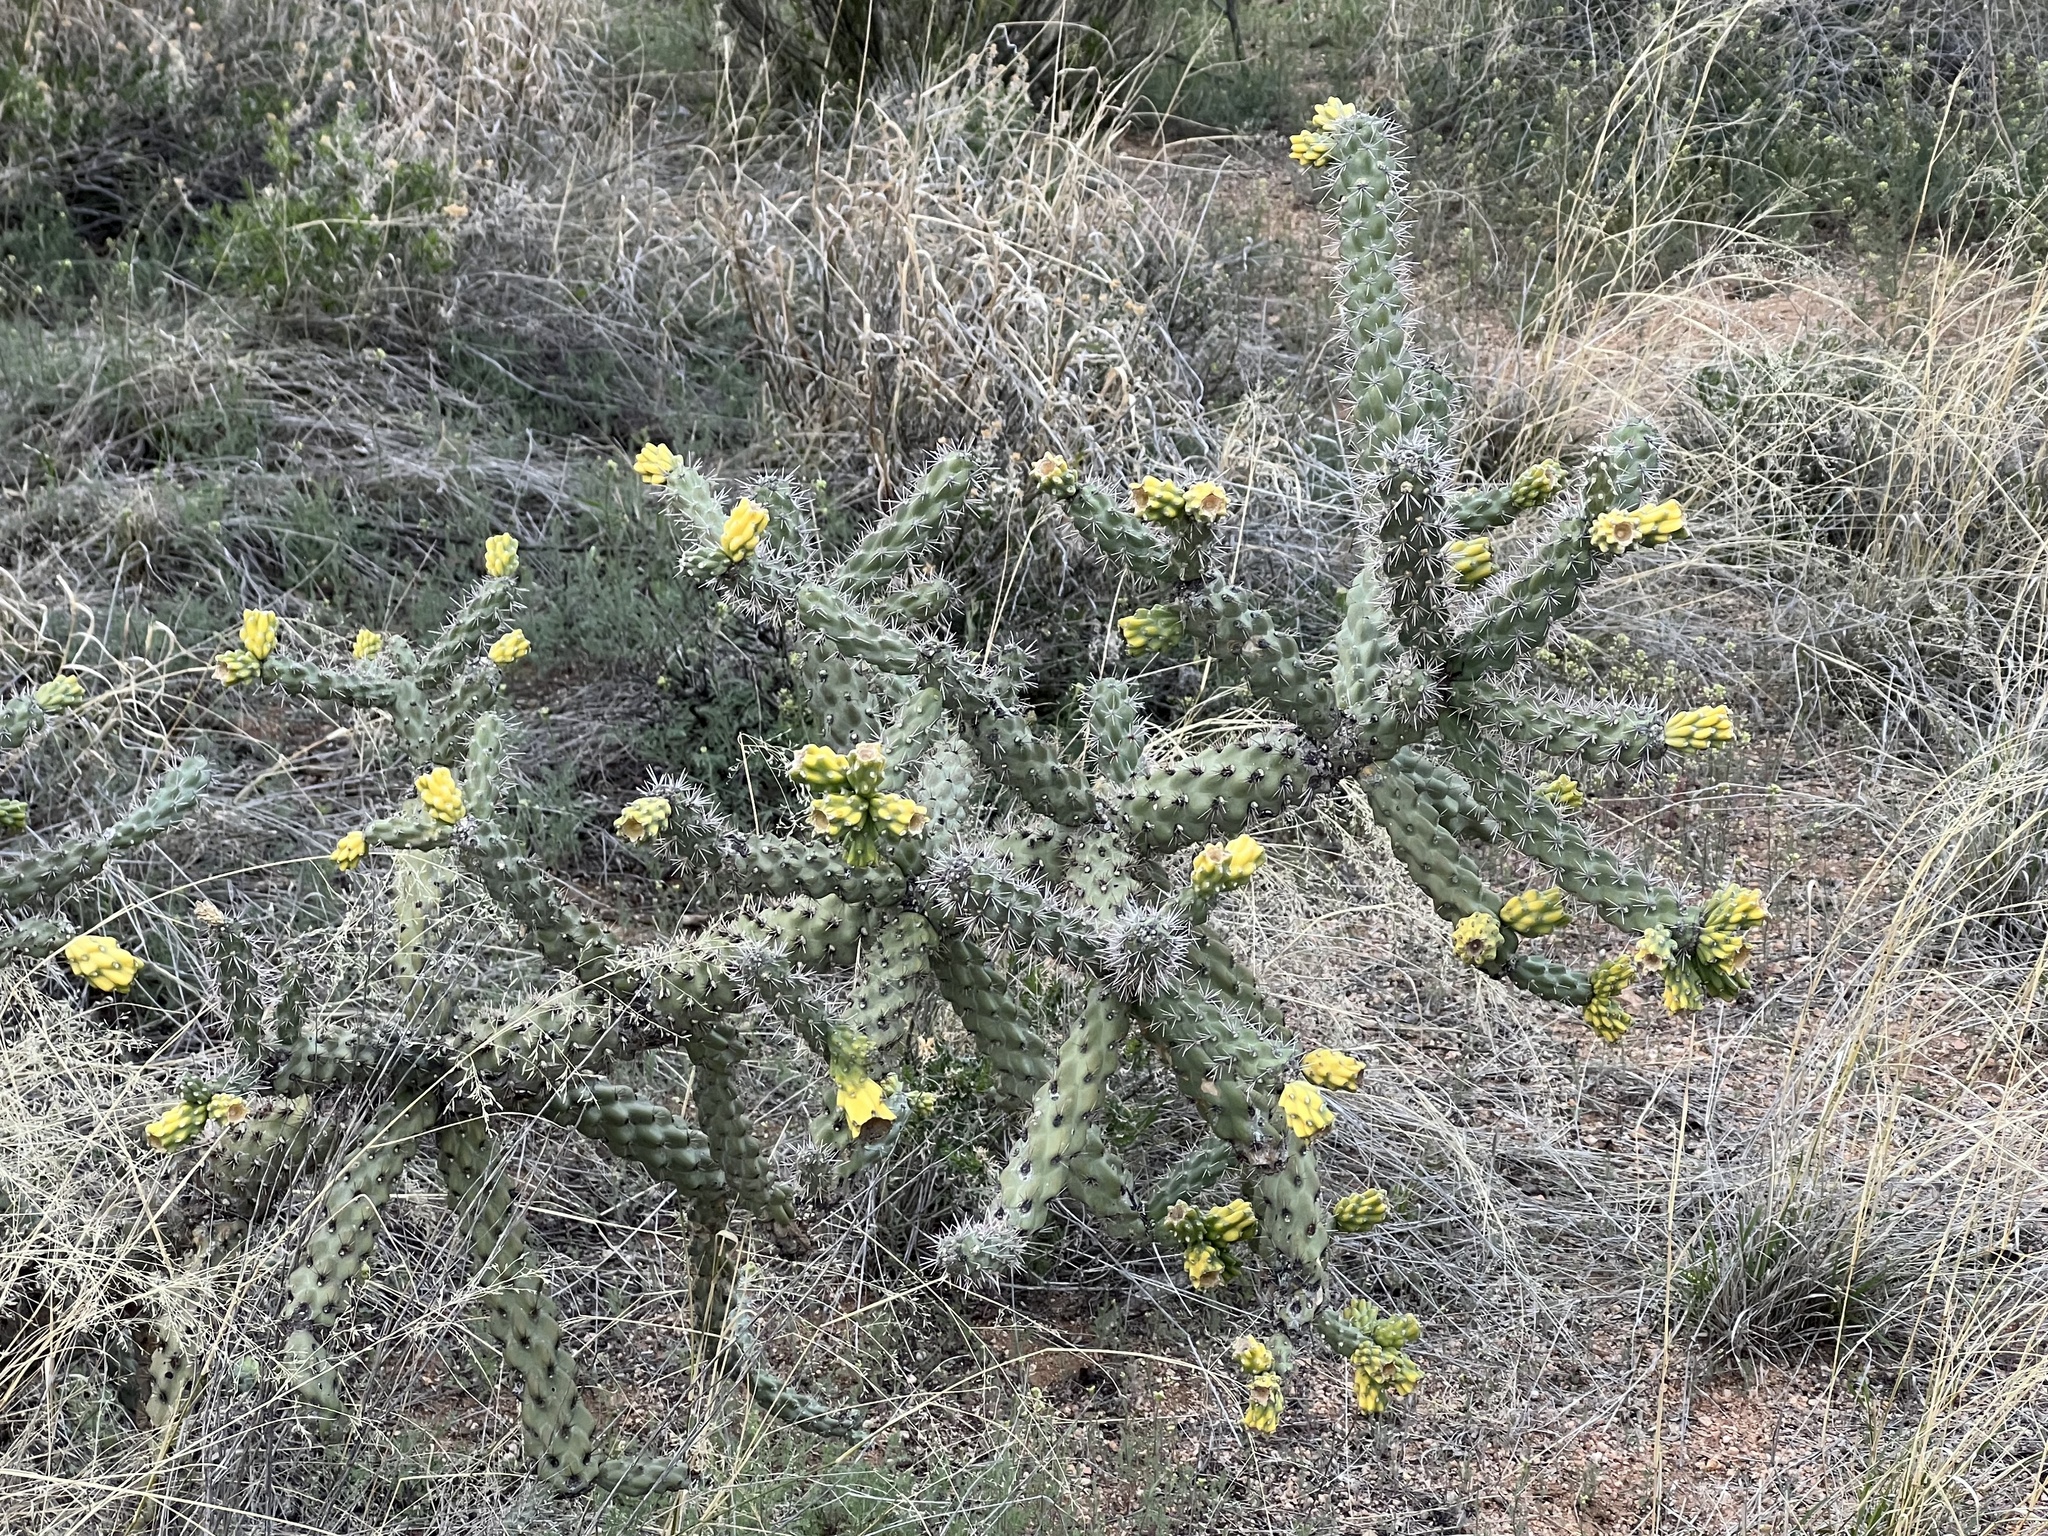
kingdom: Plantae
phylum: Tracheophyta
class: Magnoliopsida
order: Caryophyllales
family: Cactaceae
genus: Cylindropuntia
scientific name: Cylindropuntia imbricata
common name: Candelabrum cactus
